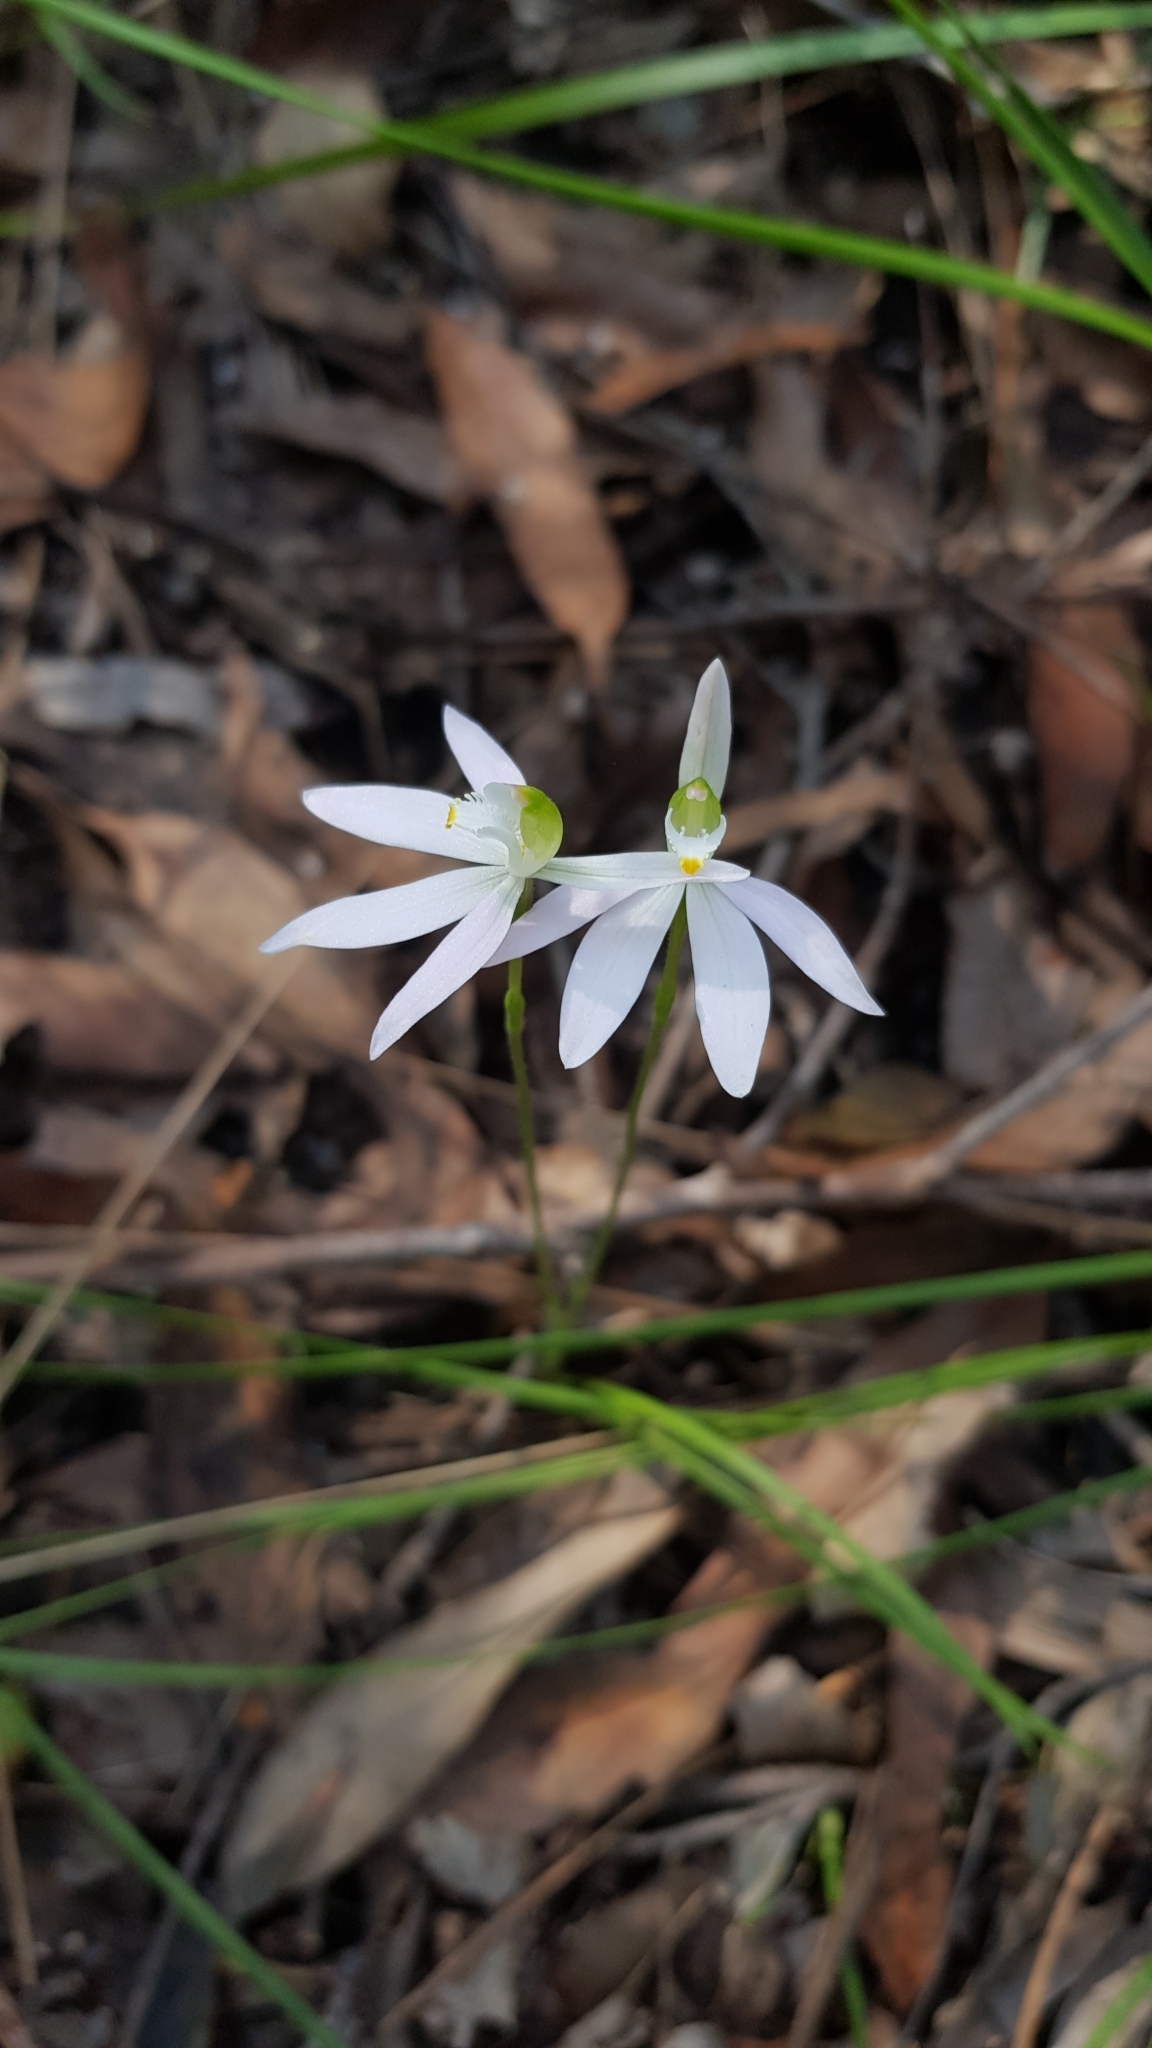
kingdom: Plantae
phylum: Tracheophyta
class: Liliopsida
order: Asparagales
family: Orchidaceae
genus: Caladenia
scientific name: Caladenia catenata
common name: White caladenia
